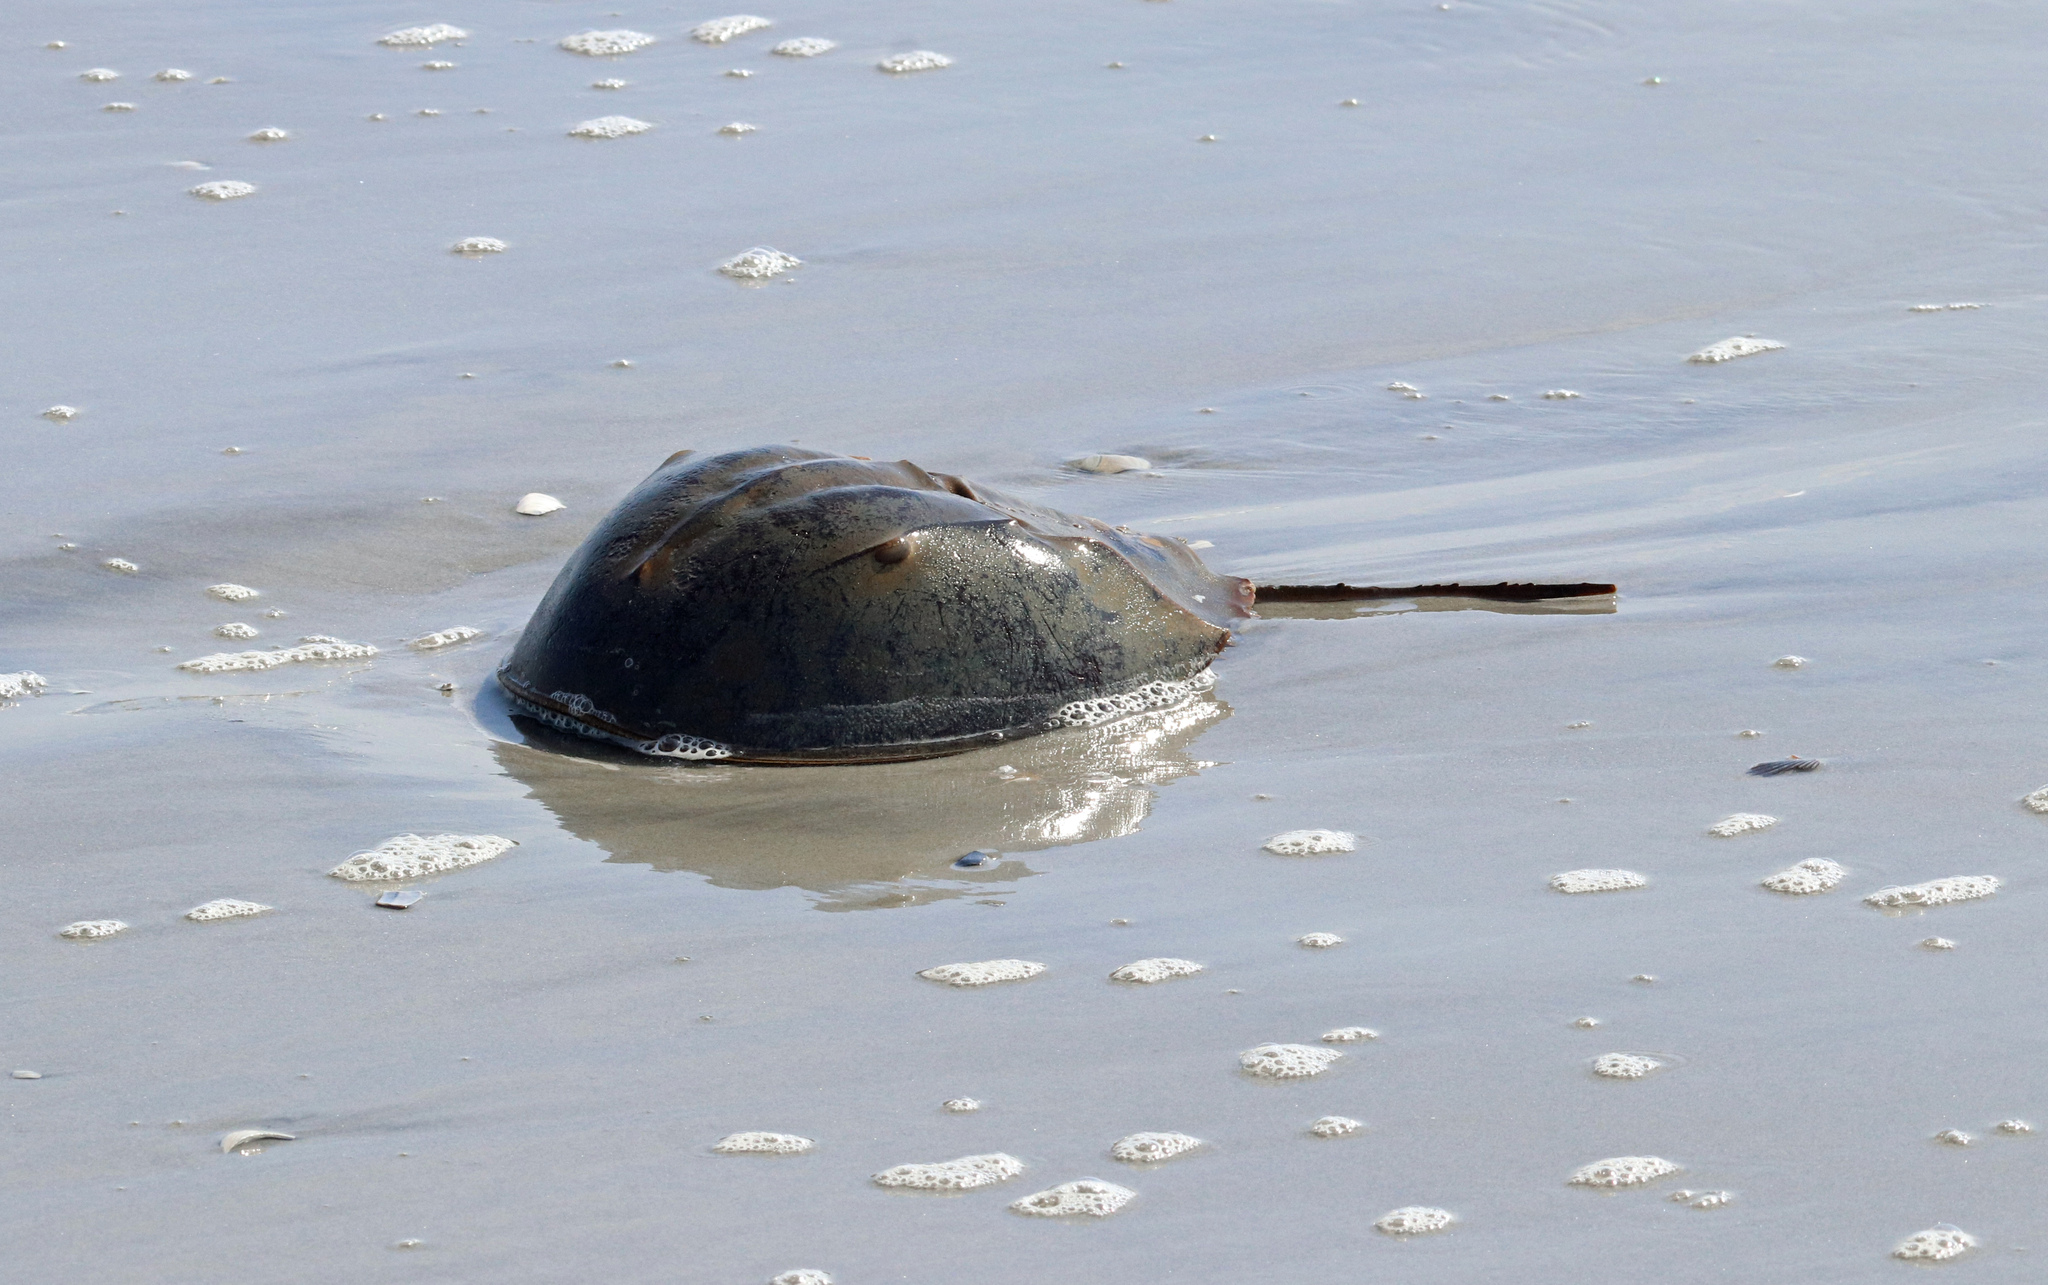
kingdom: Animalia
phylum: Arthropoda
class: Merostomata
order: Xiphosurida
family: Limulidae
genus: Limulus
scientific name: Limulus polyphemus
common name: Horseshoe crab
